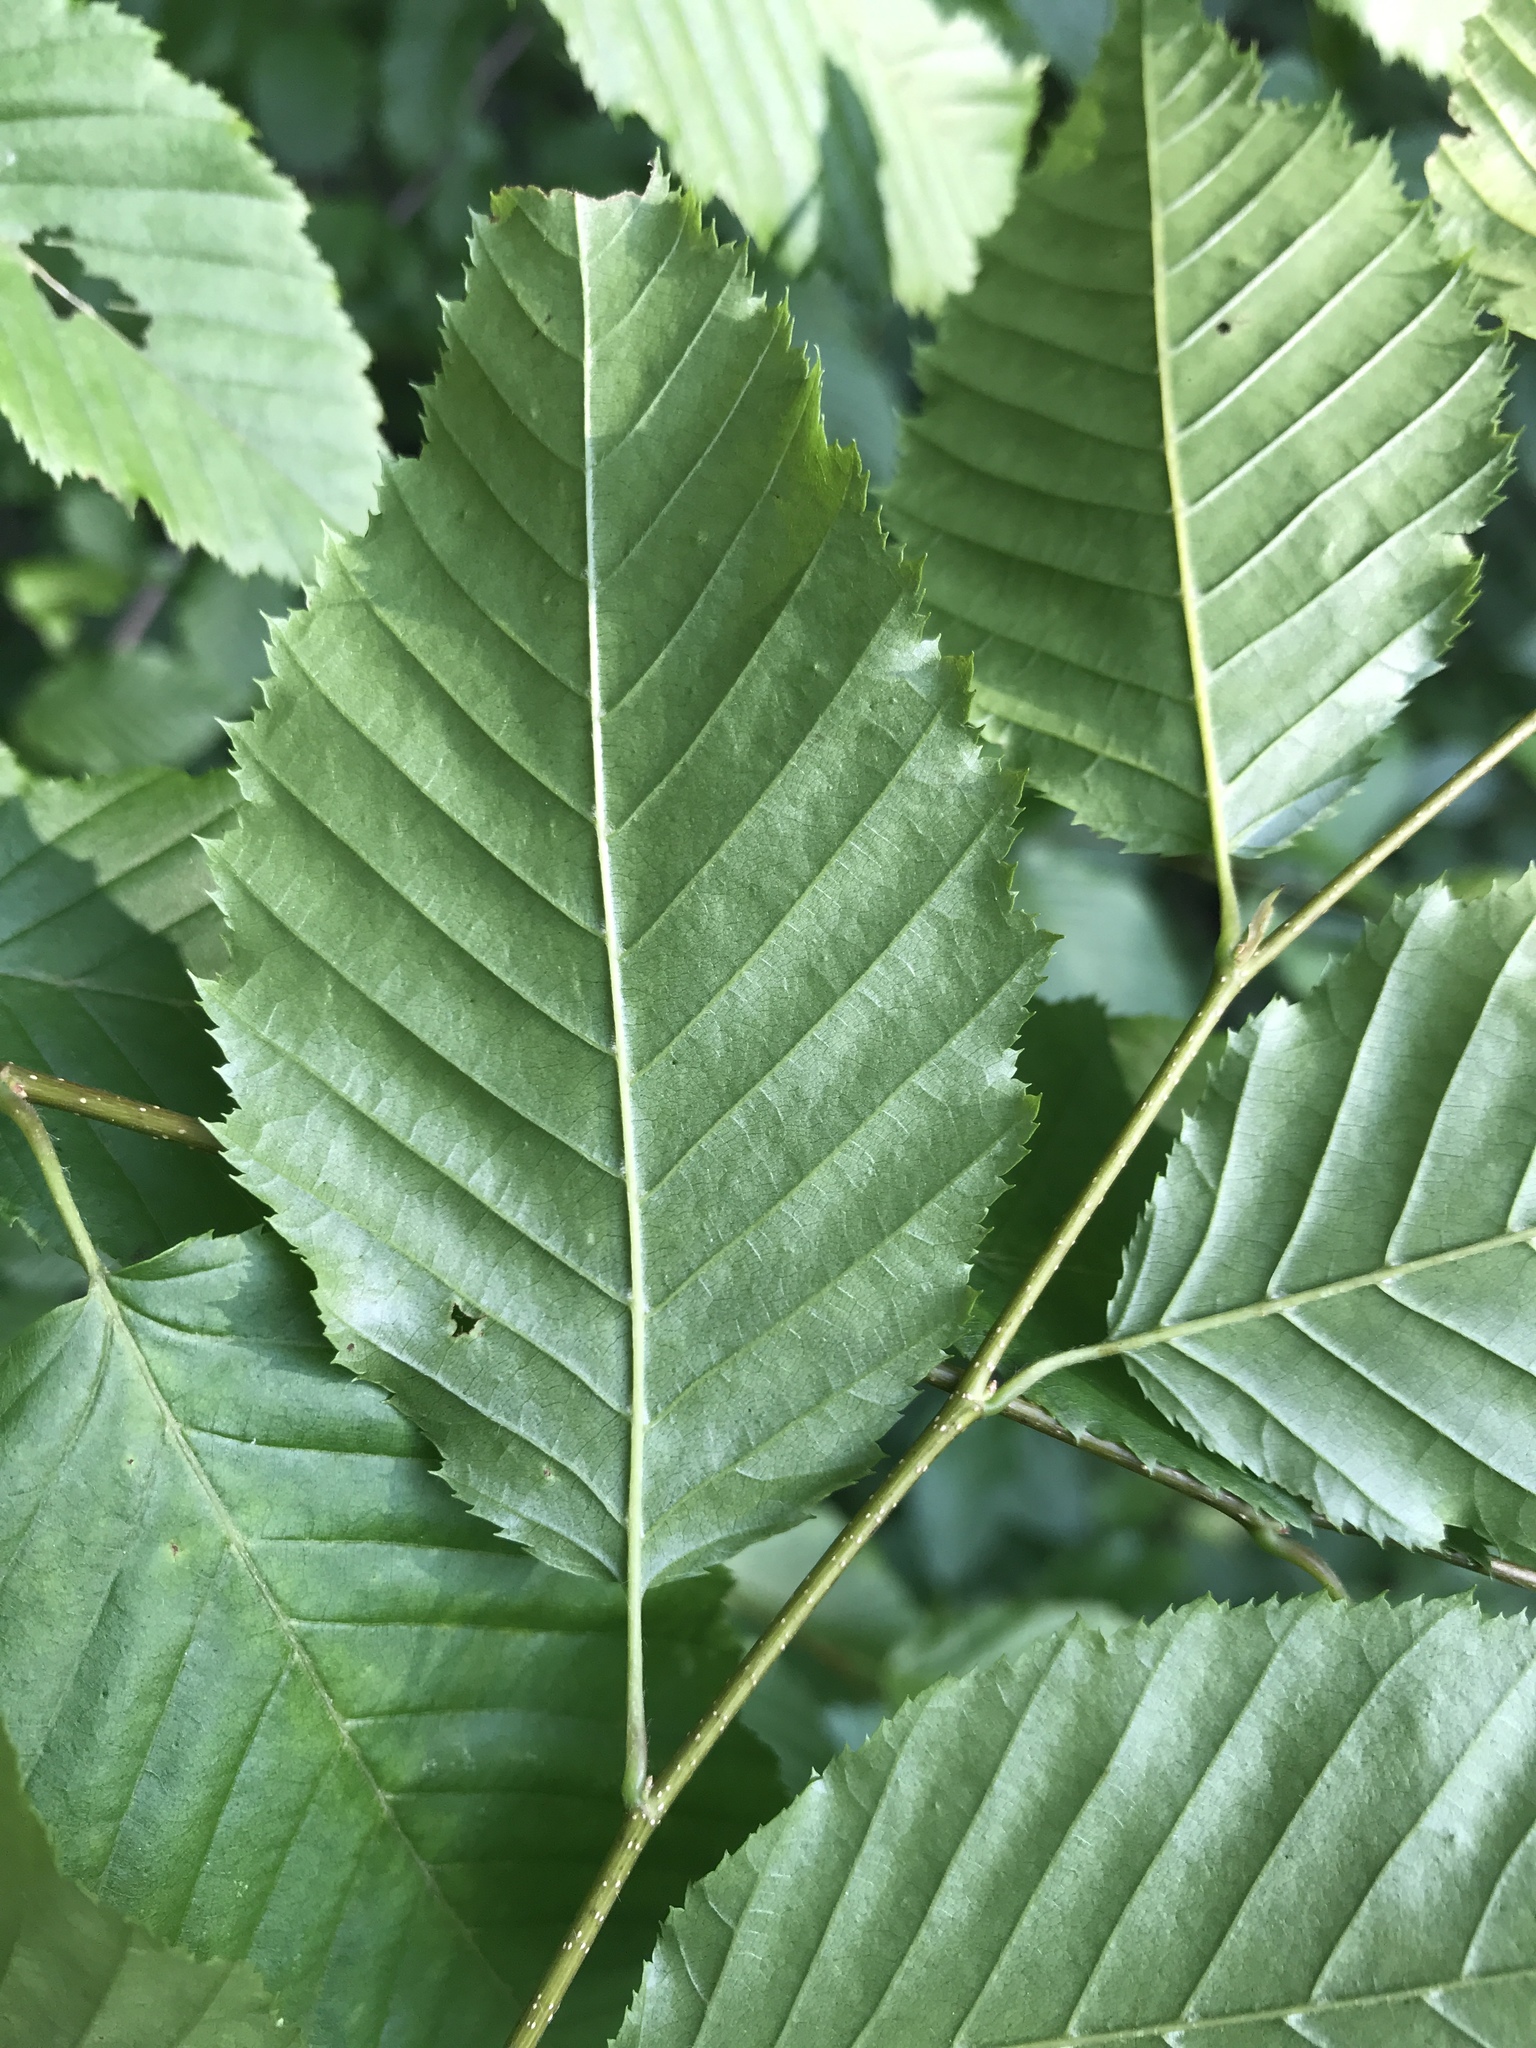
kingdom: Plantae
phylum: Tracheophyta
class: Magnoliopsida
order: Fagales
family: Betulaceae
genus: Carpinus
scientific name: Carpinus caroliniana
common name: American hornbeam
